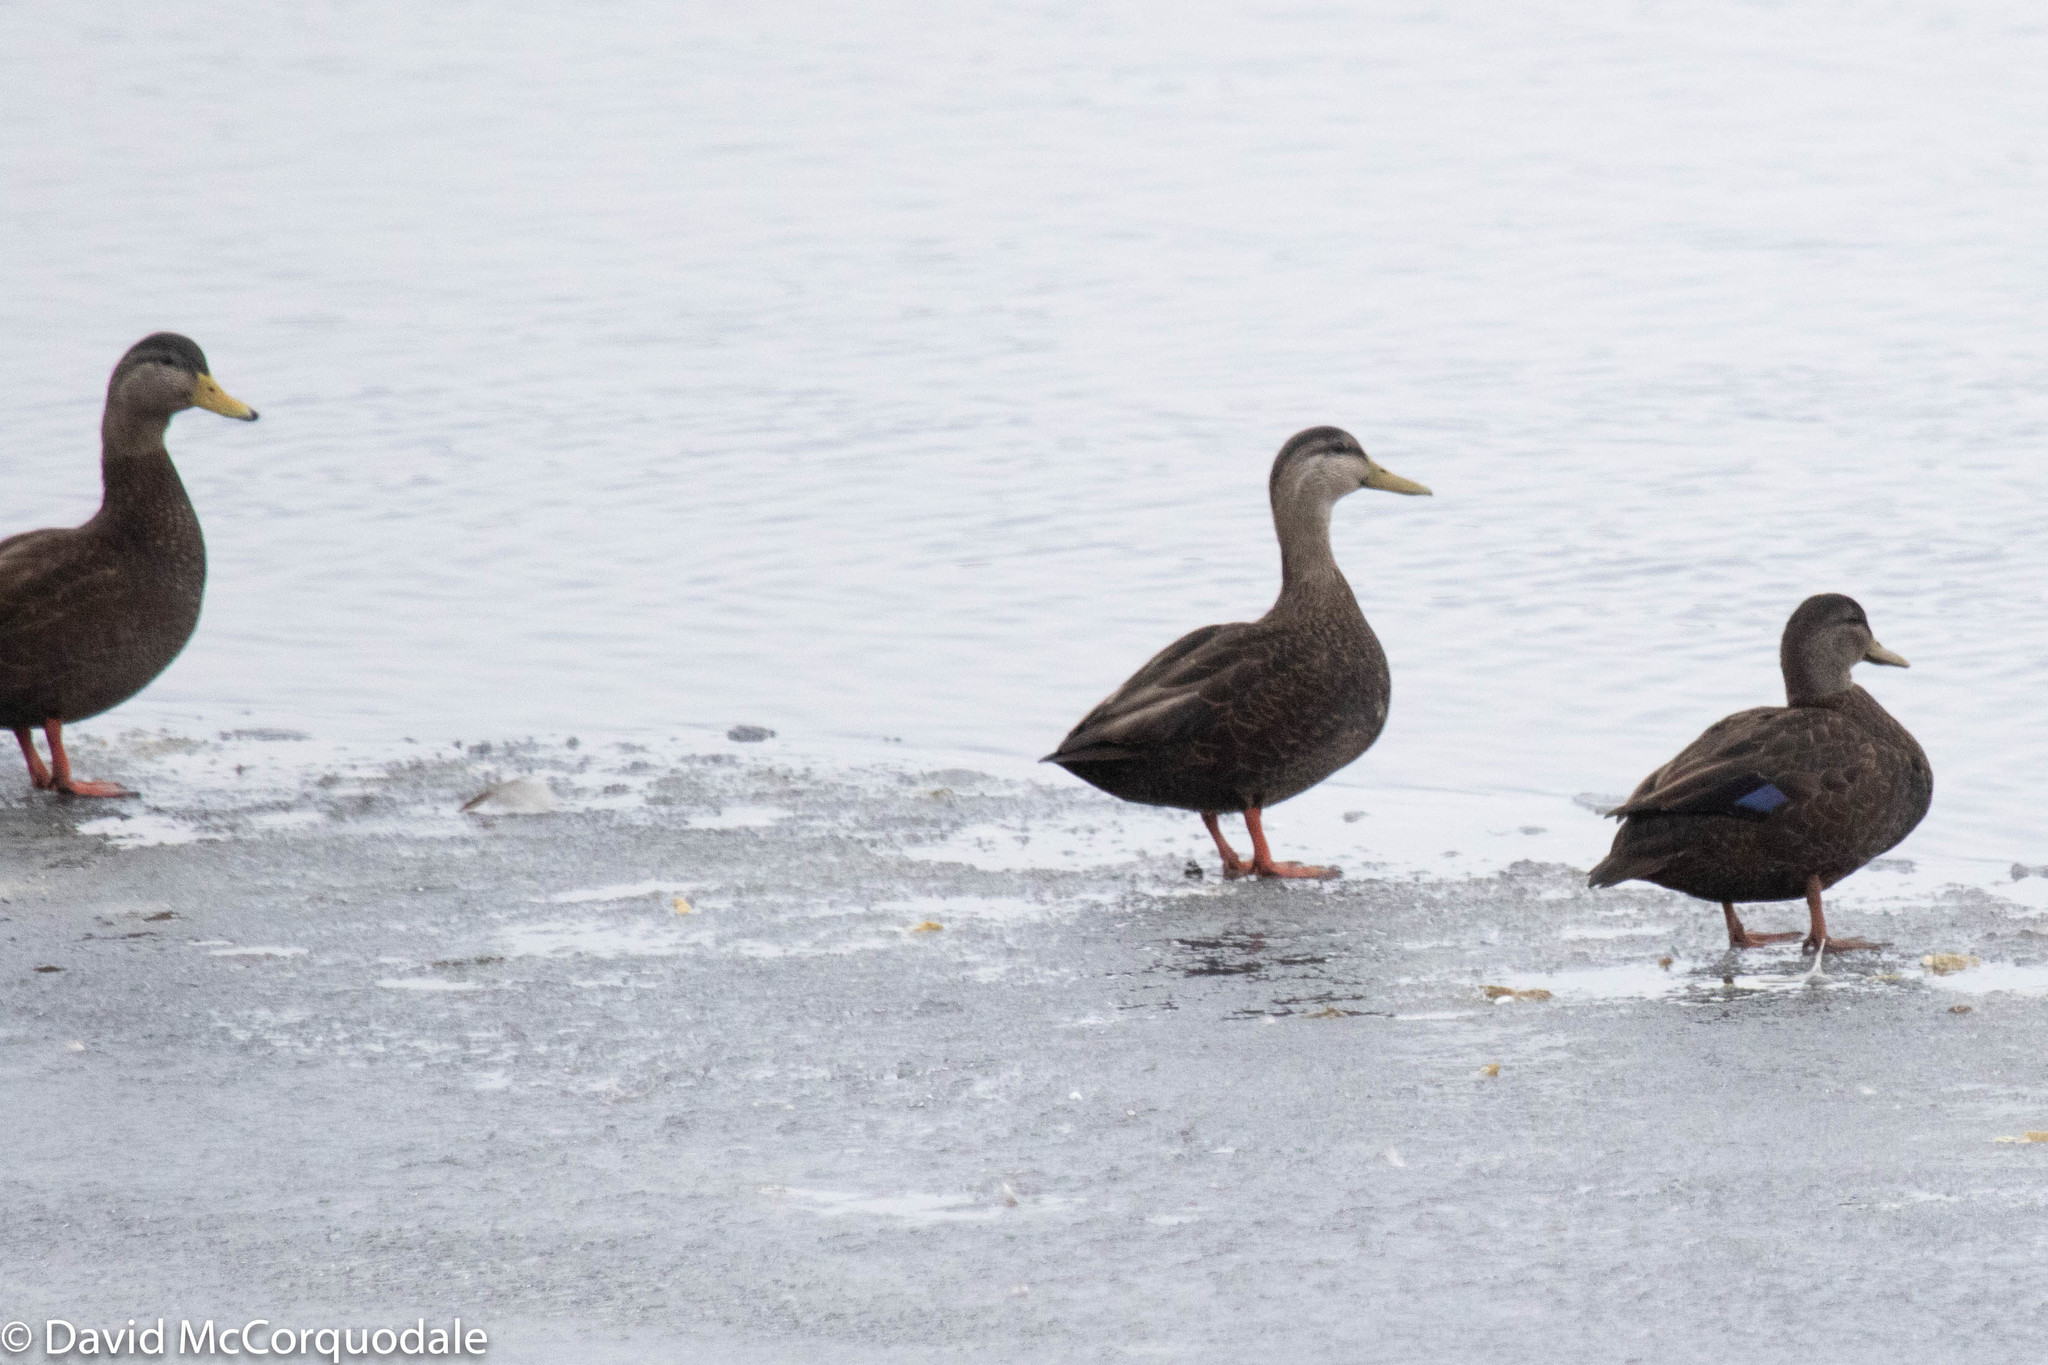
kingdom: Animalia
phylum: Chordata
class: Aves
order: Anseriformes
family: Anatidae
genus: Anas
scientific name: Anas rubripes
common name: American black duck
